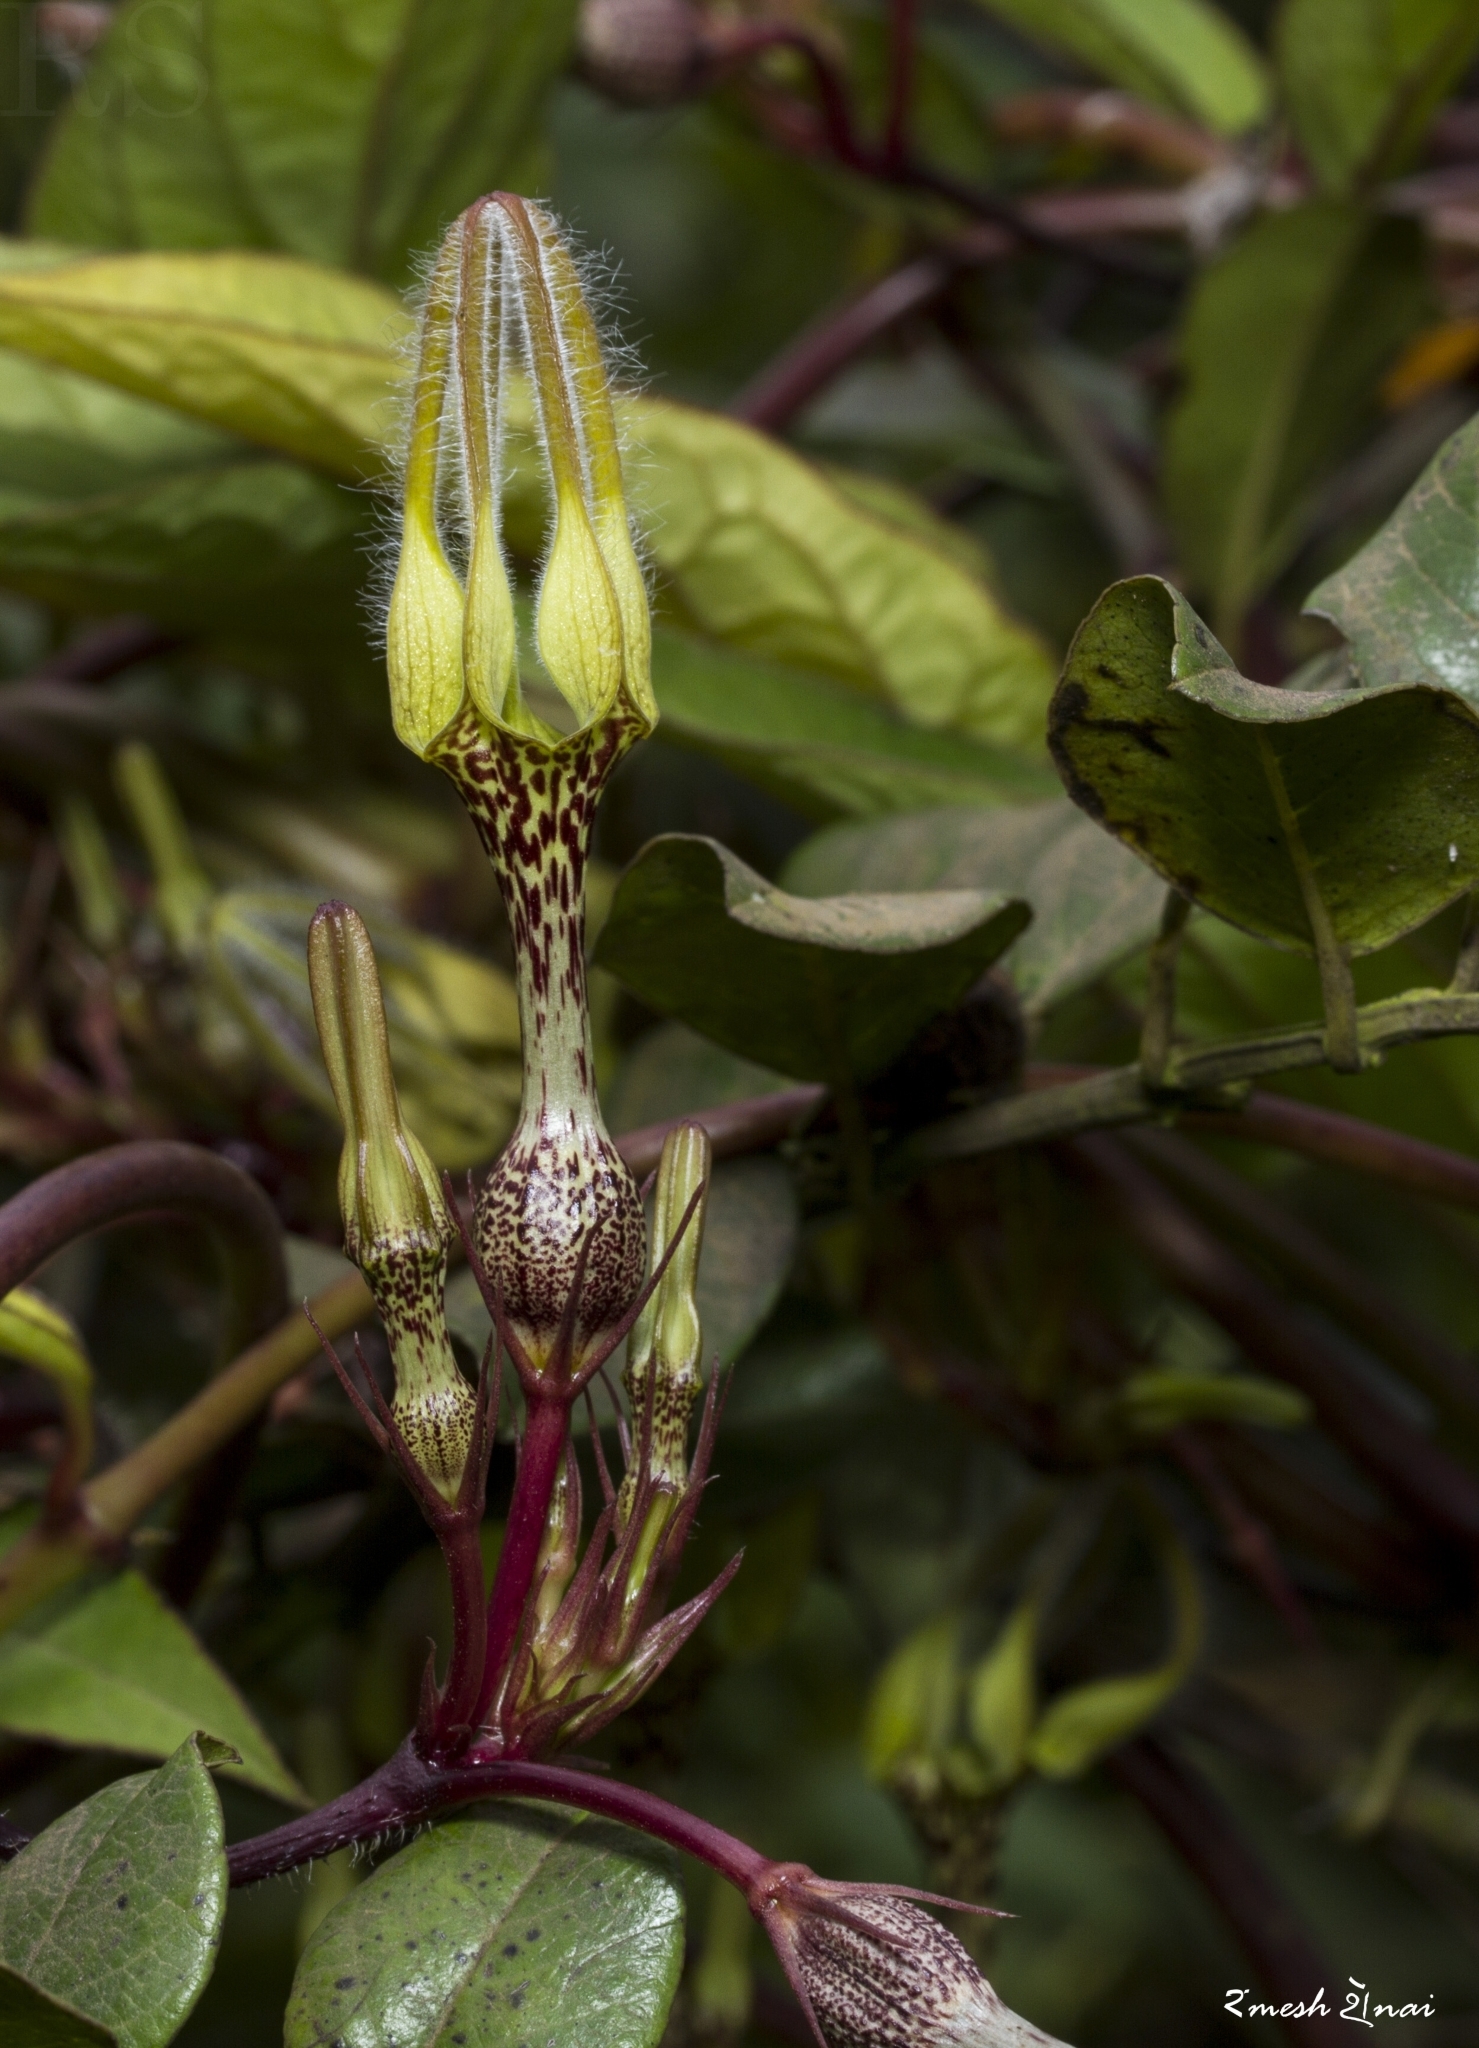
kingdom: Plantae
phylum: Tracheophyta
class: Magnoliopsida
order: Gentianales
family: Apocynaceae
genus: Ceropegia
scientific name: Ceropegia vincifolia
